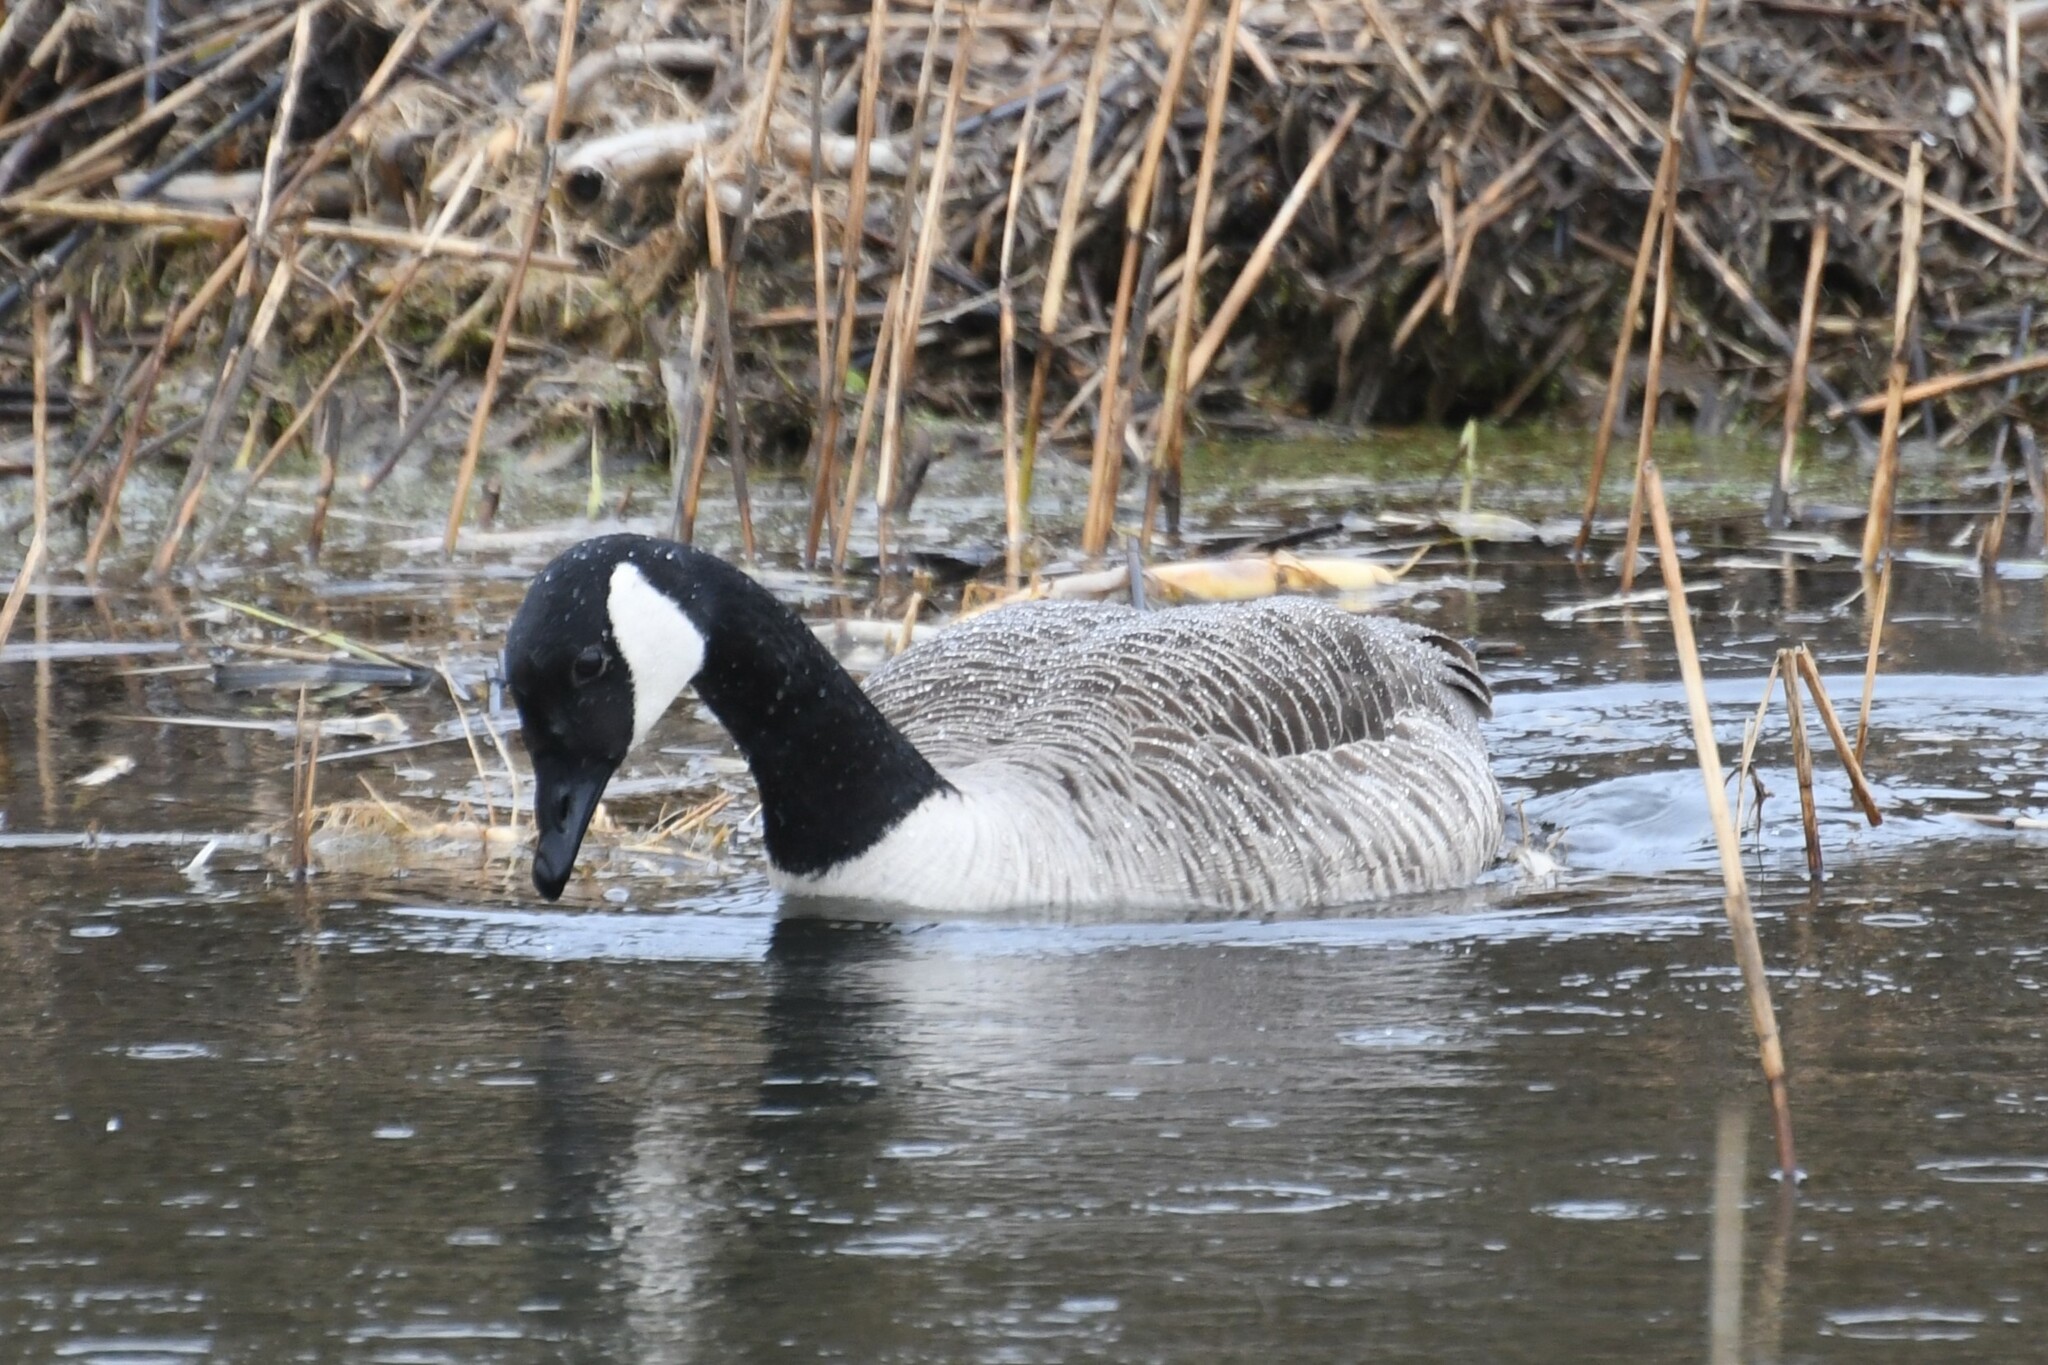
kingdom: Animalia
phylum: Chordata
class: Aves
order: Anseriformes
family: Anatidae
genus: Branta
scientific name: Branta canadensis
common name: Canada goose
